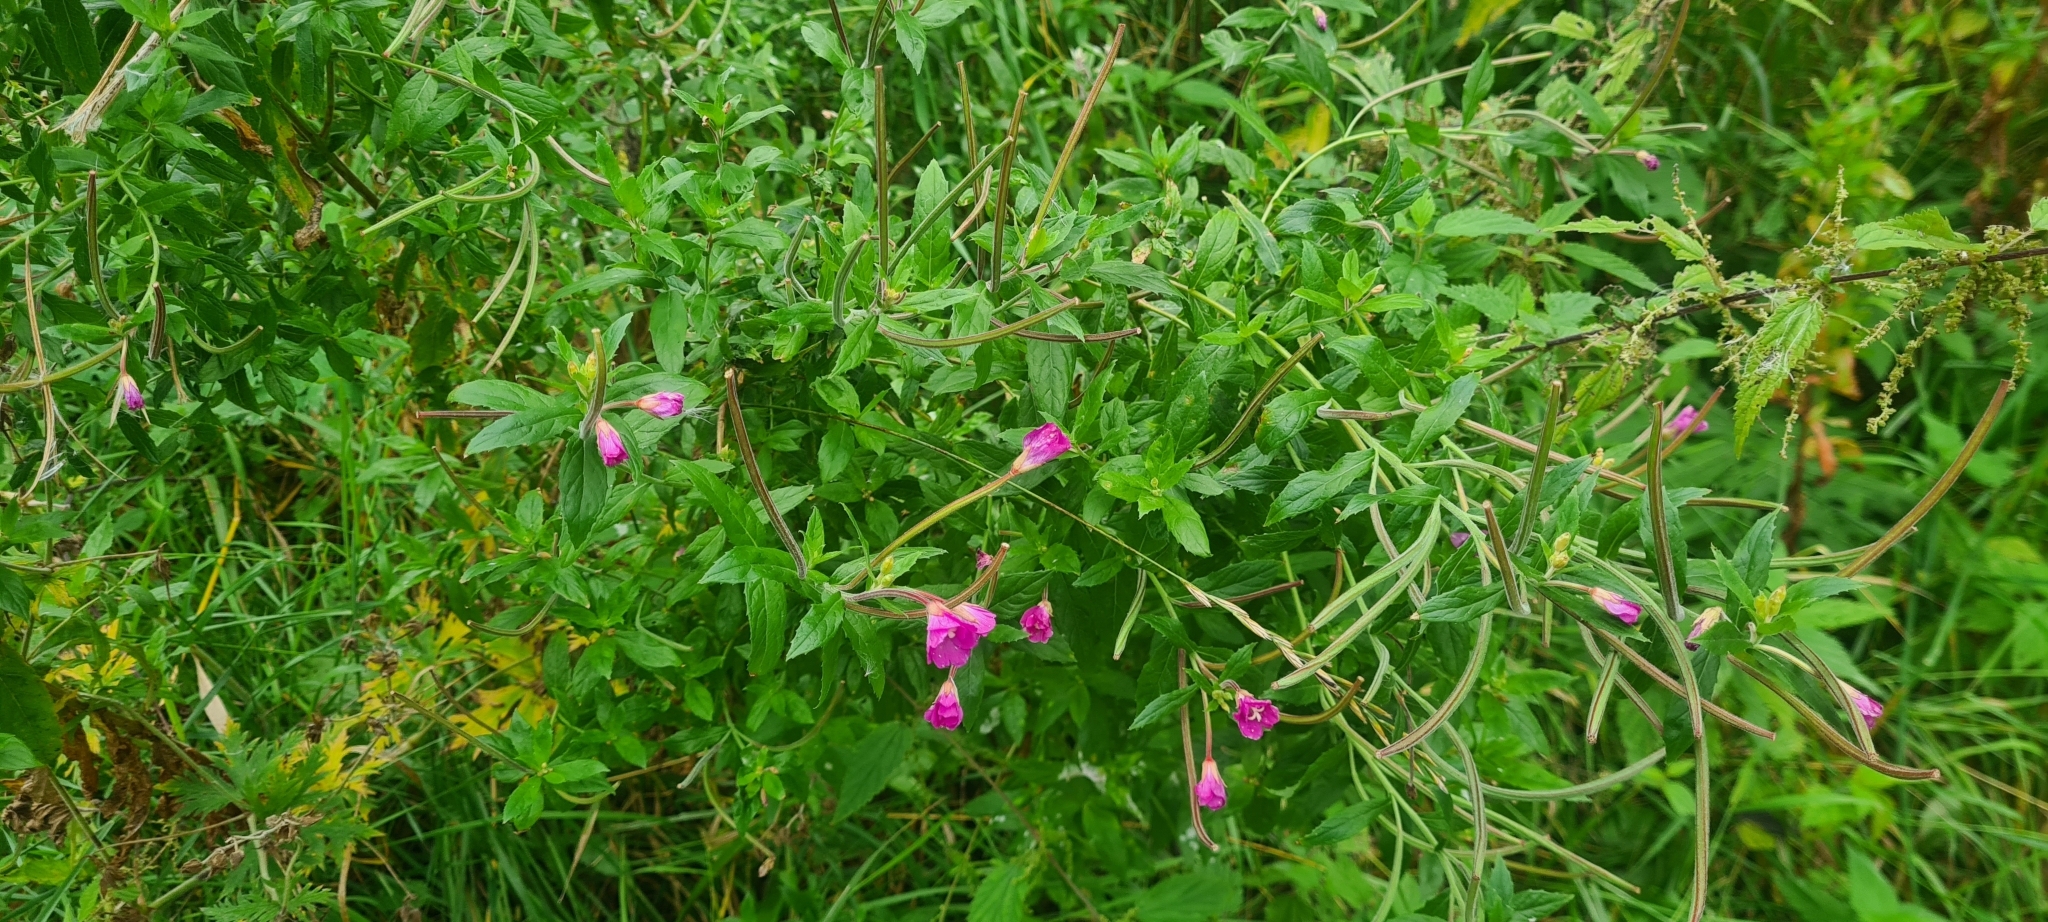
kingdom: Plantae
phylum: Tracheophyta
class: Magnoliopsida
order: Myrtales
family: Onagraceae
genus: Epilobium
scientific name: Epilobium hirsutum
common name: Great willowherb
